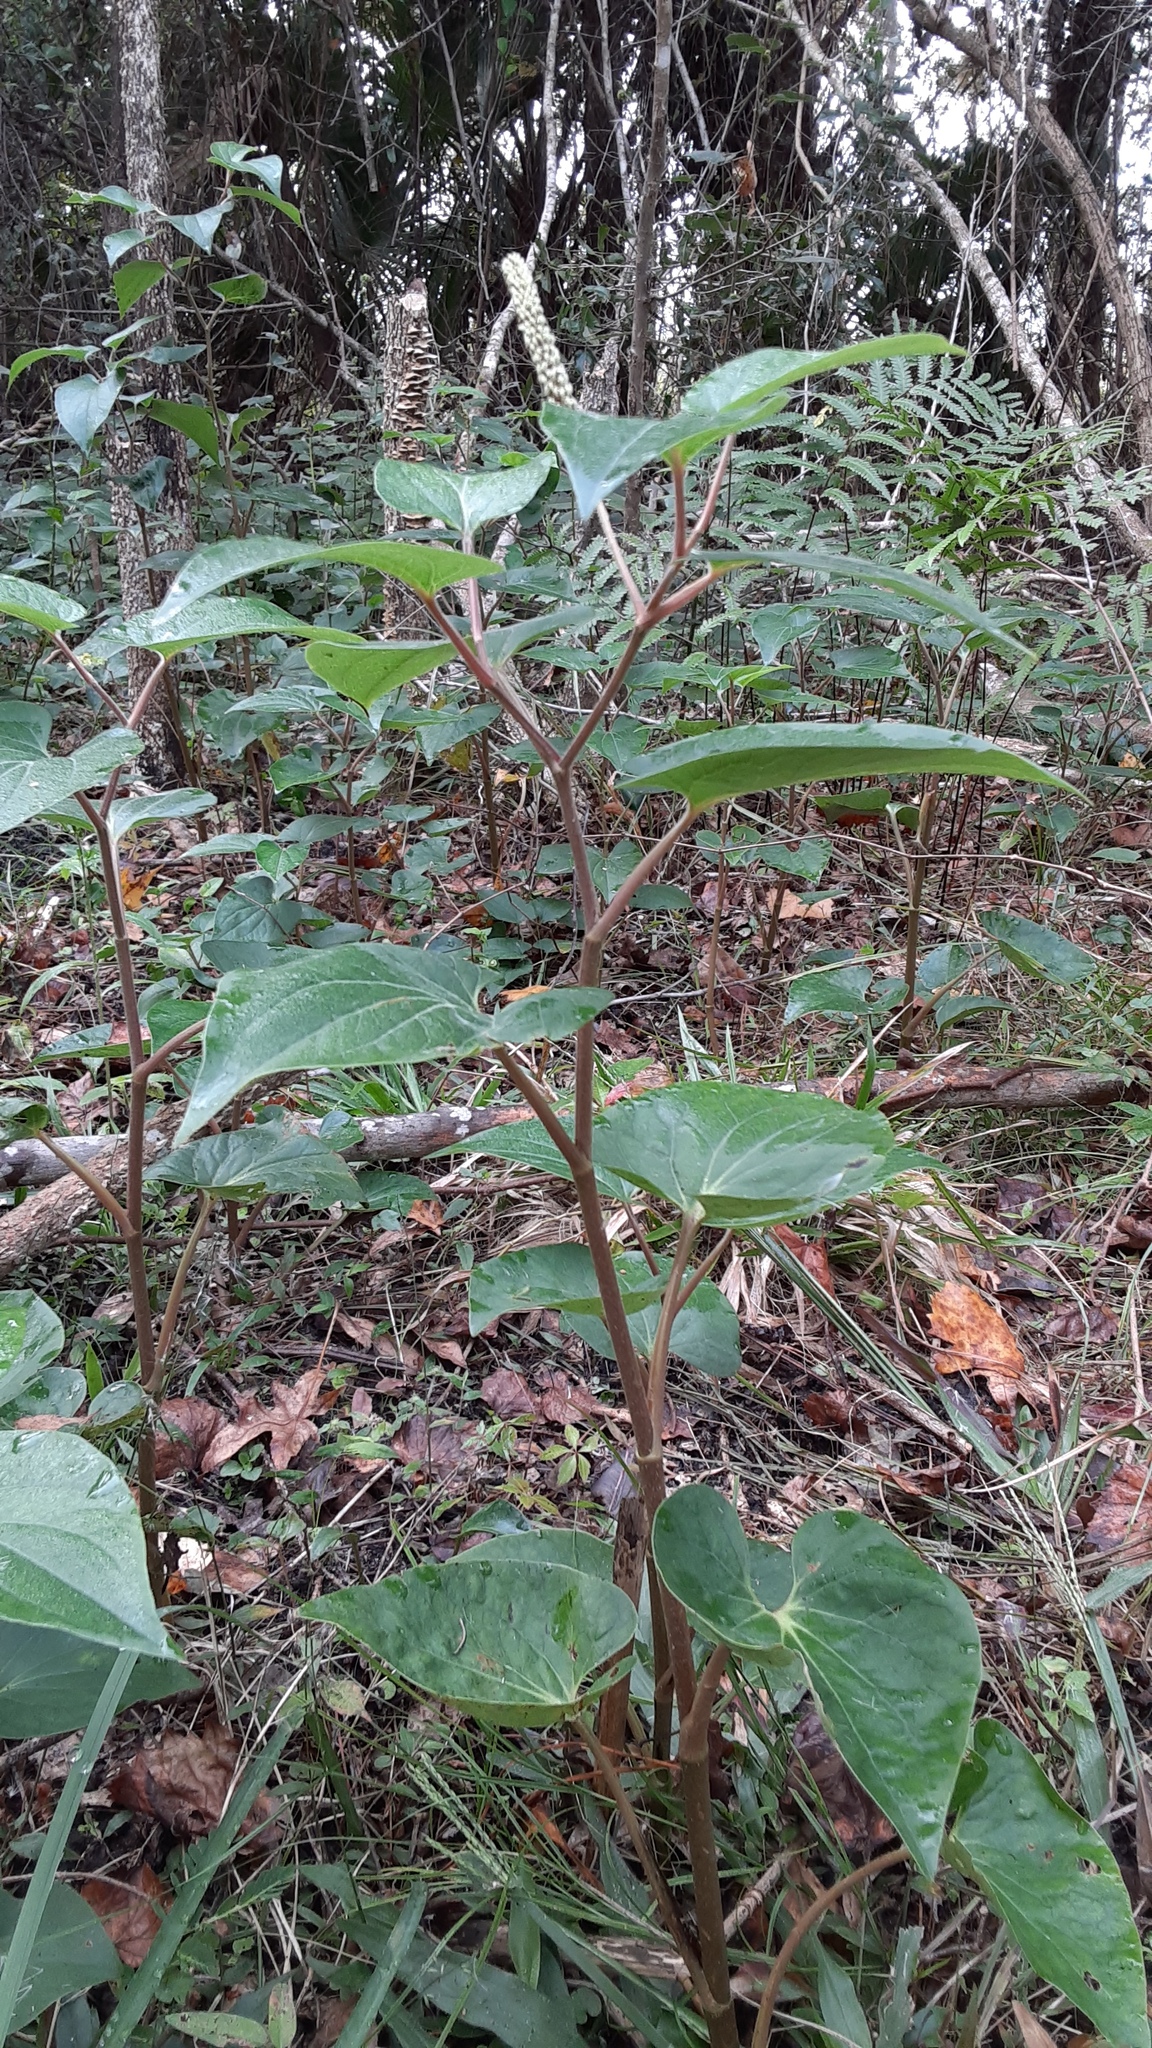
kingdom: Plantae
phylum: Tracheophyta
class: Magnoliopsida
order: Piperales
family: Saururaceae
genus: Saururus
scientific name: Saururus cernuus
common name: Lizard's-tail
